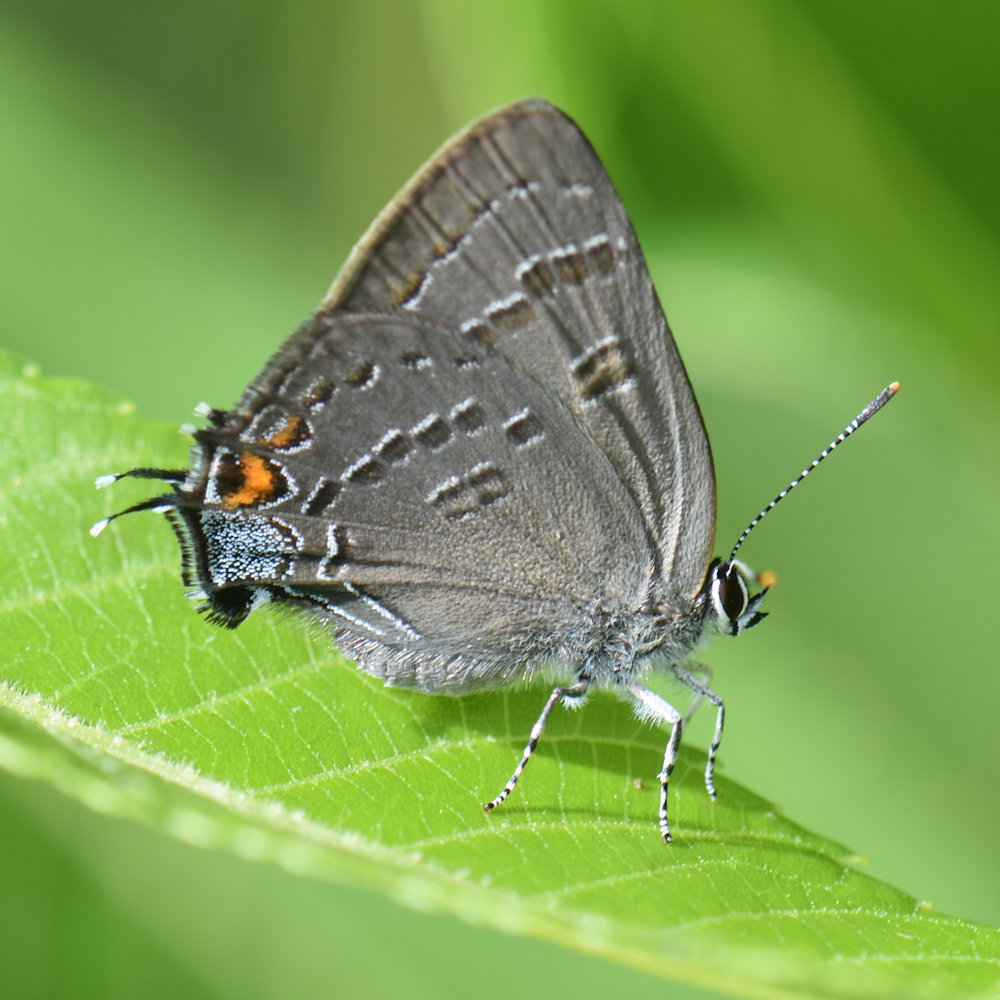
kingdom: Animalia
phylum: Arthropoda
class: Insecta
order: Lepidoptera
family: Lycaenidae
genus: Satyrium
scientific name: Satyrium calanus
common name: Banded hairstreak
